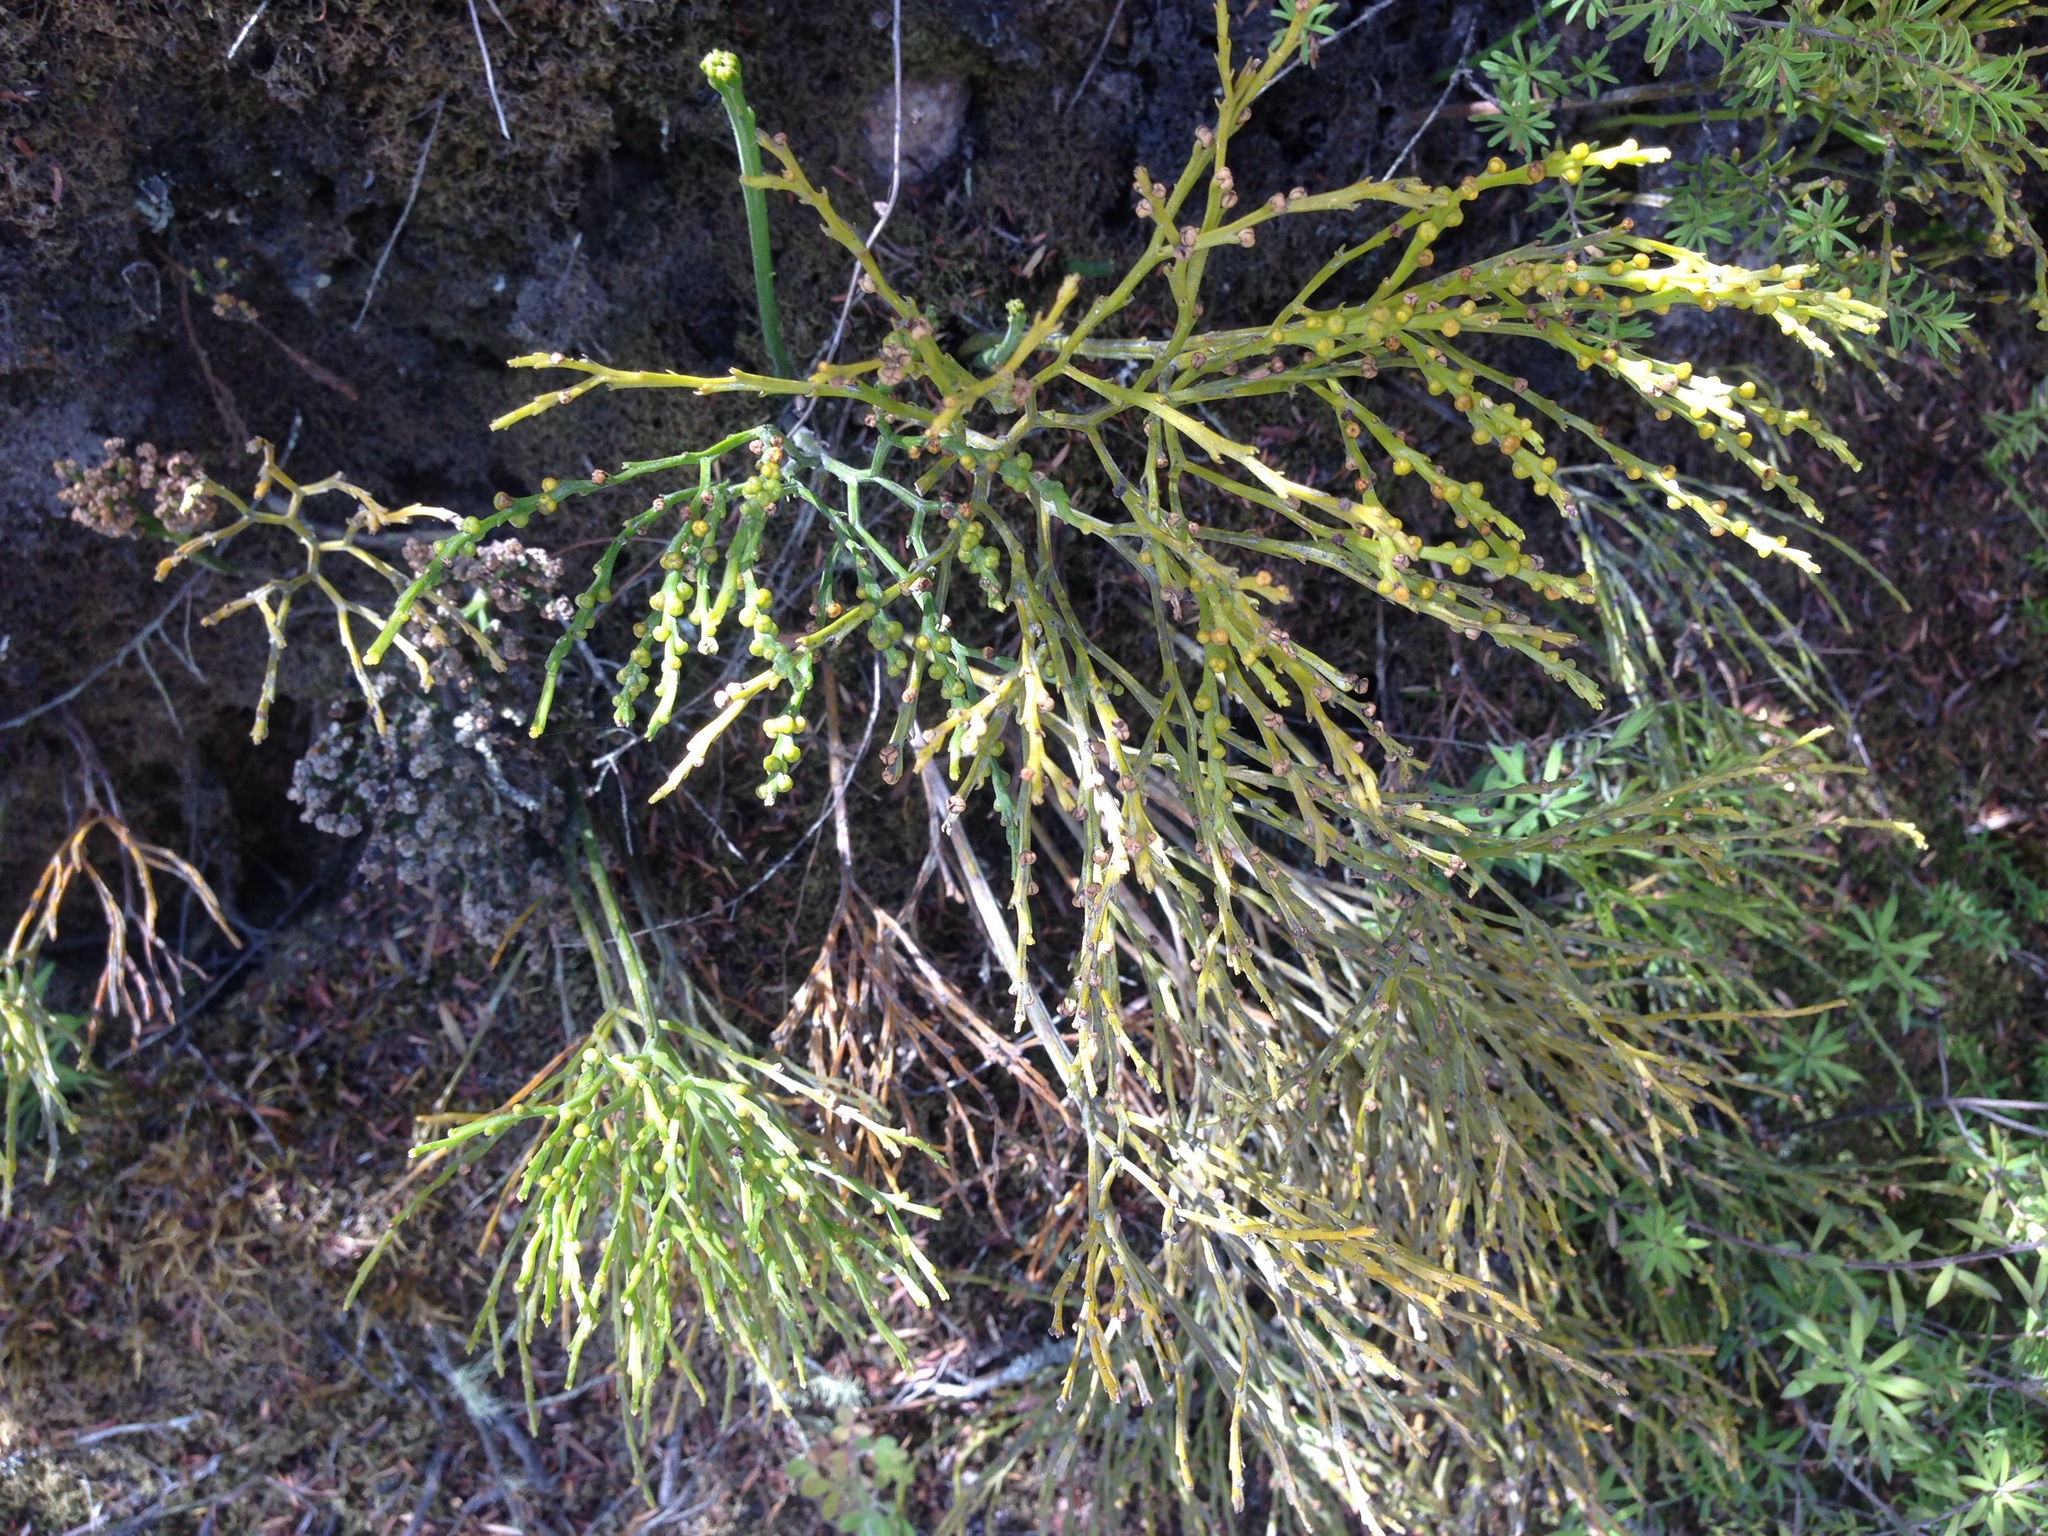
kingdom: Plantae
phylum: Tracheophyta
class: Polypodiopsida
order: Psilotales
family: Psilotaceae
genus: Psilotum
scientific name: Psilotum nudum
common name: Skeleton fork fern
